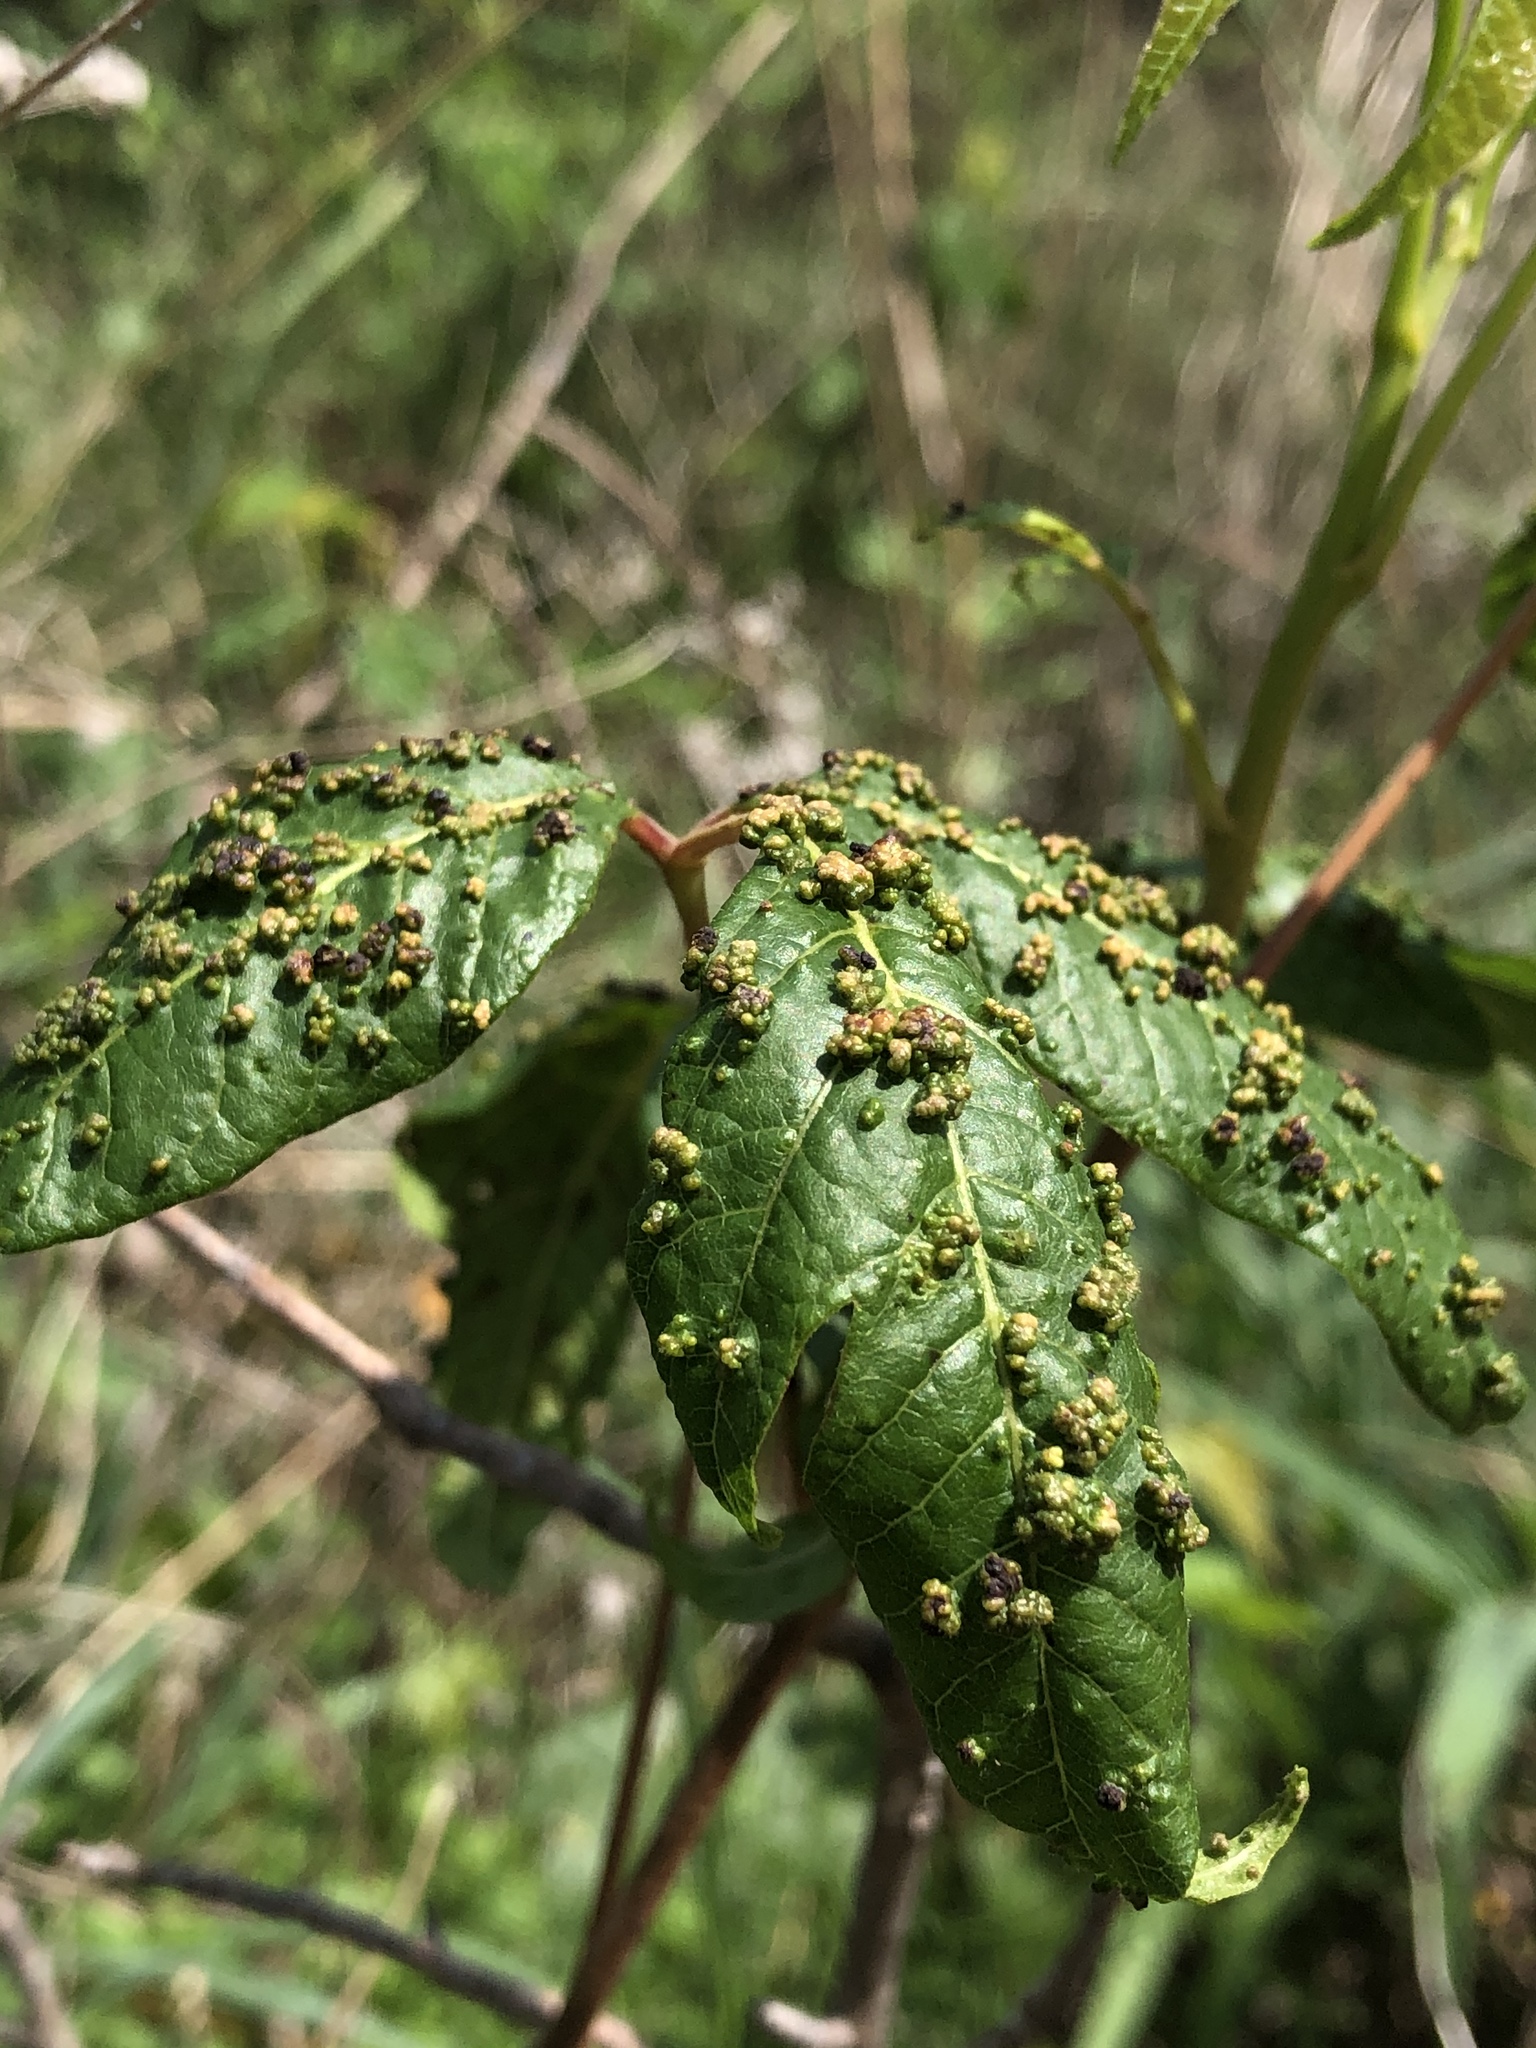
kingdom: Animalia
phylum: Arthropoda
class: Arachnida
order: Trombidiformes
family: Eriophyidae
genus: Aculops
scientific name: Aculops
